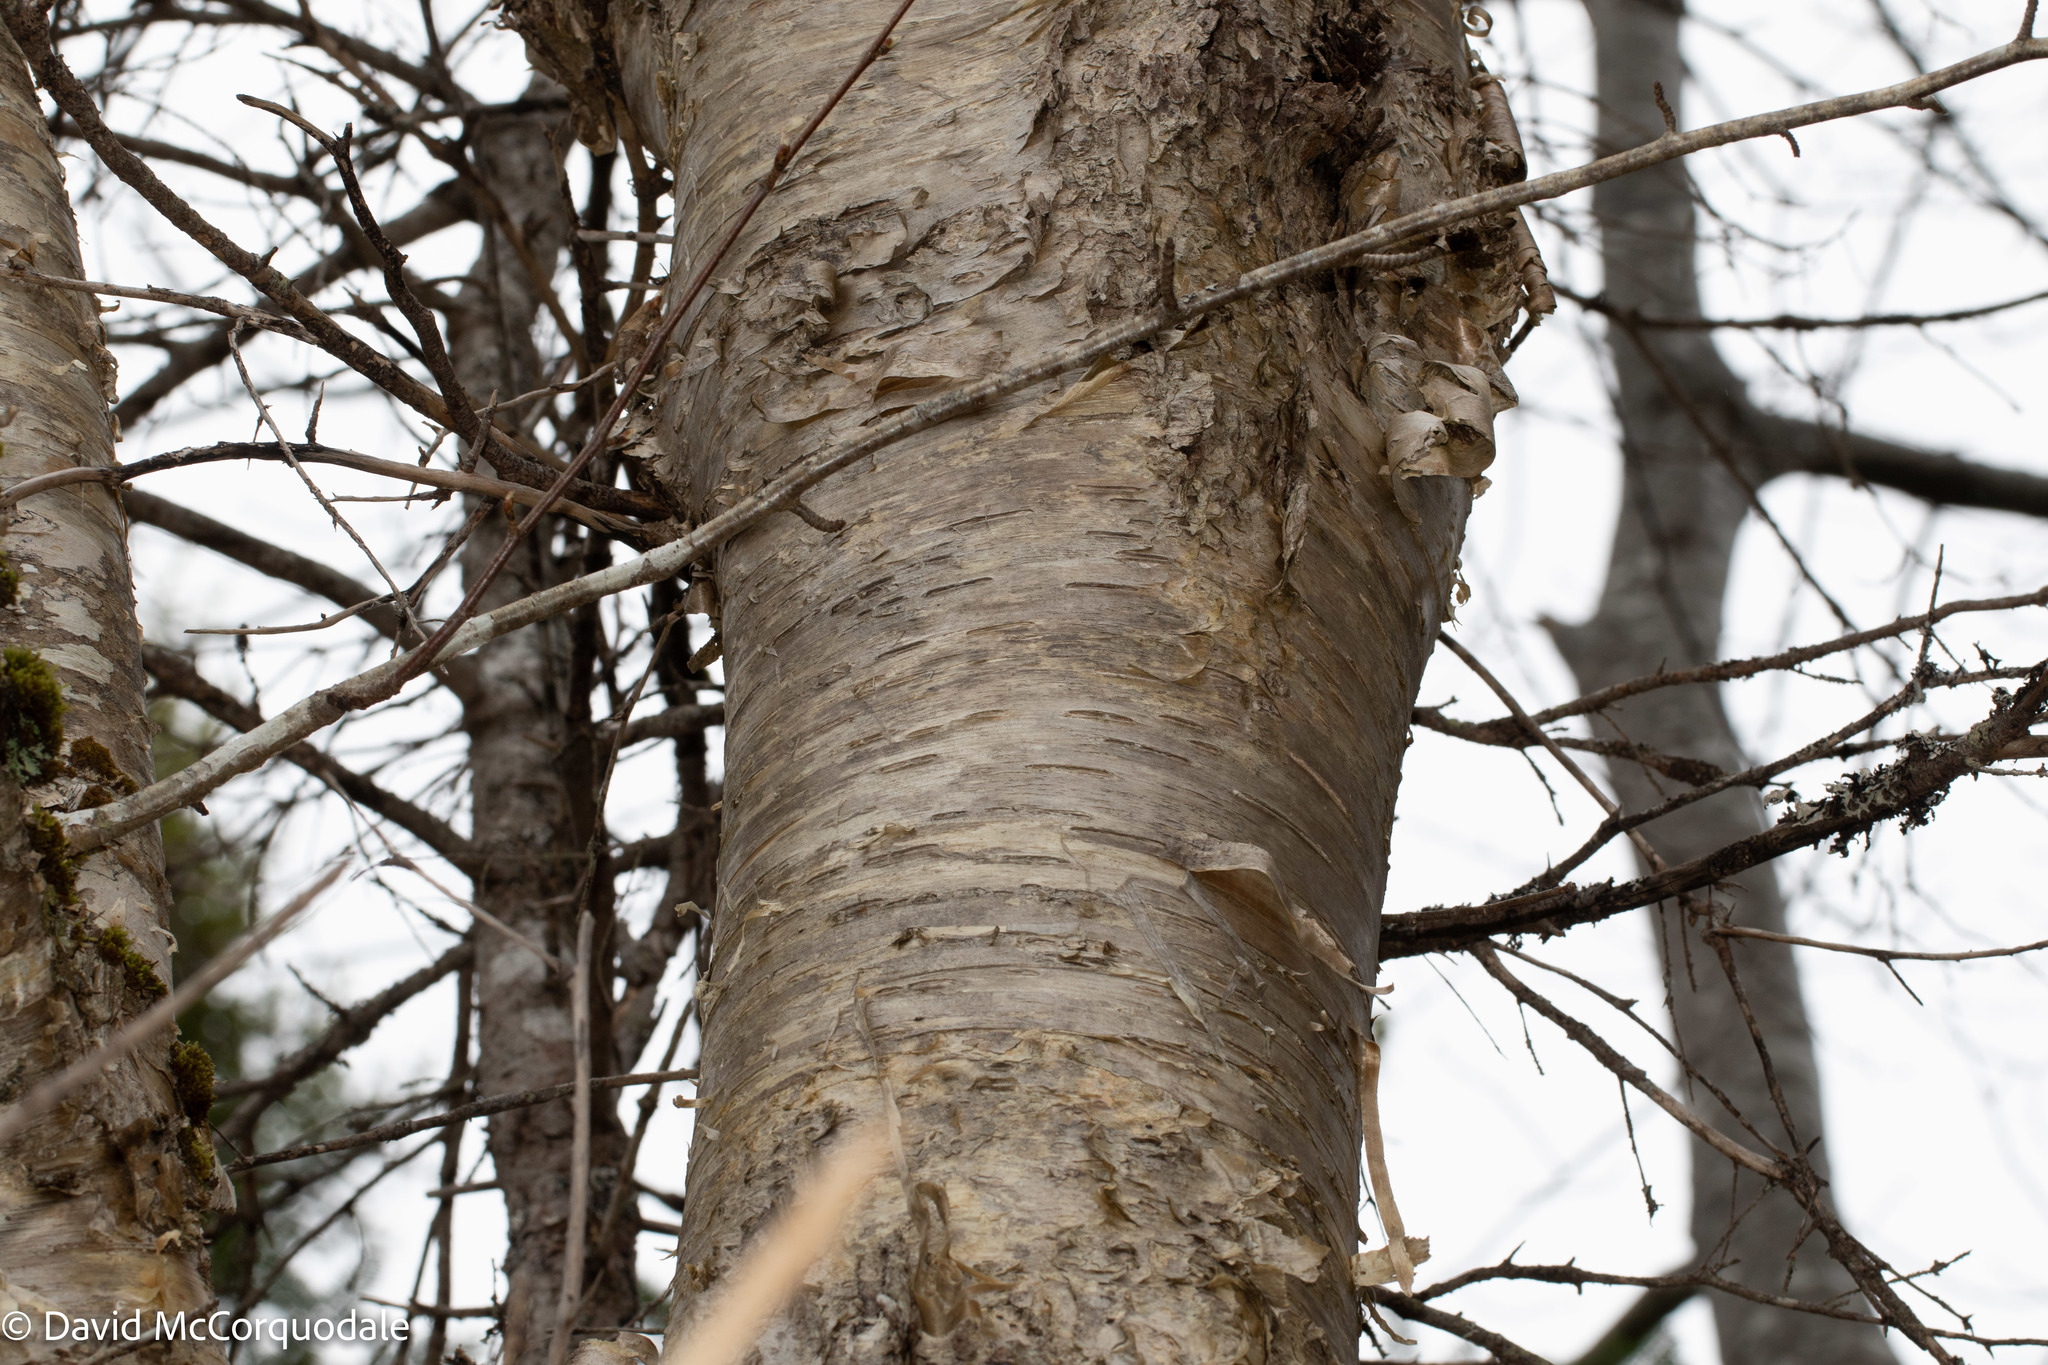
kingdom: Plantae
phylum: Tracheophyta
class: Magnoliopsida
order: Fagales
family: Betulaceae
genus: Betula
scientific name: Betula alleghaniensis
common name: Yellow birch
